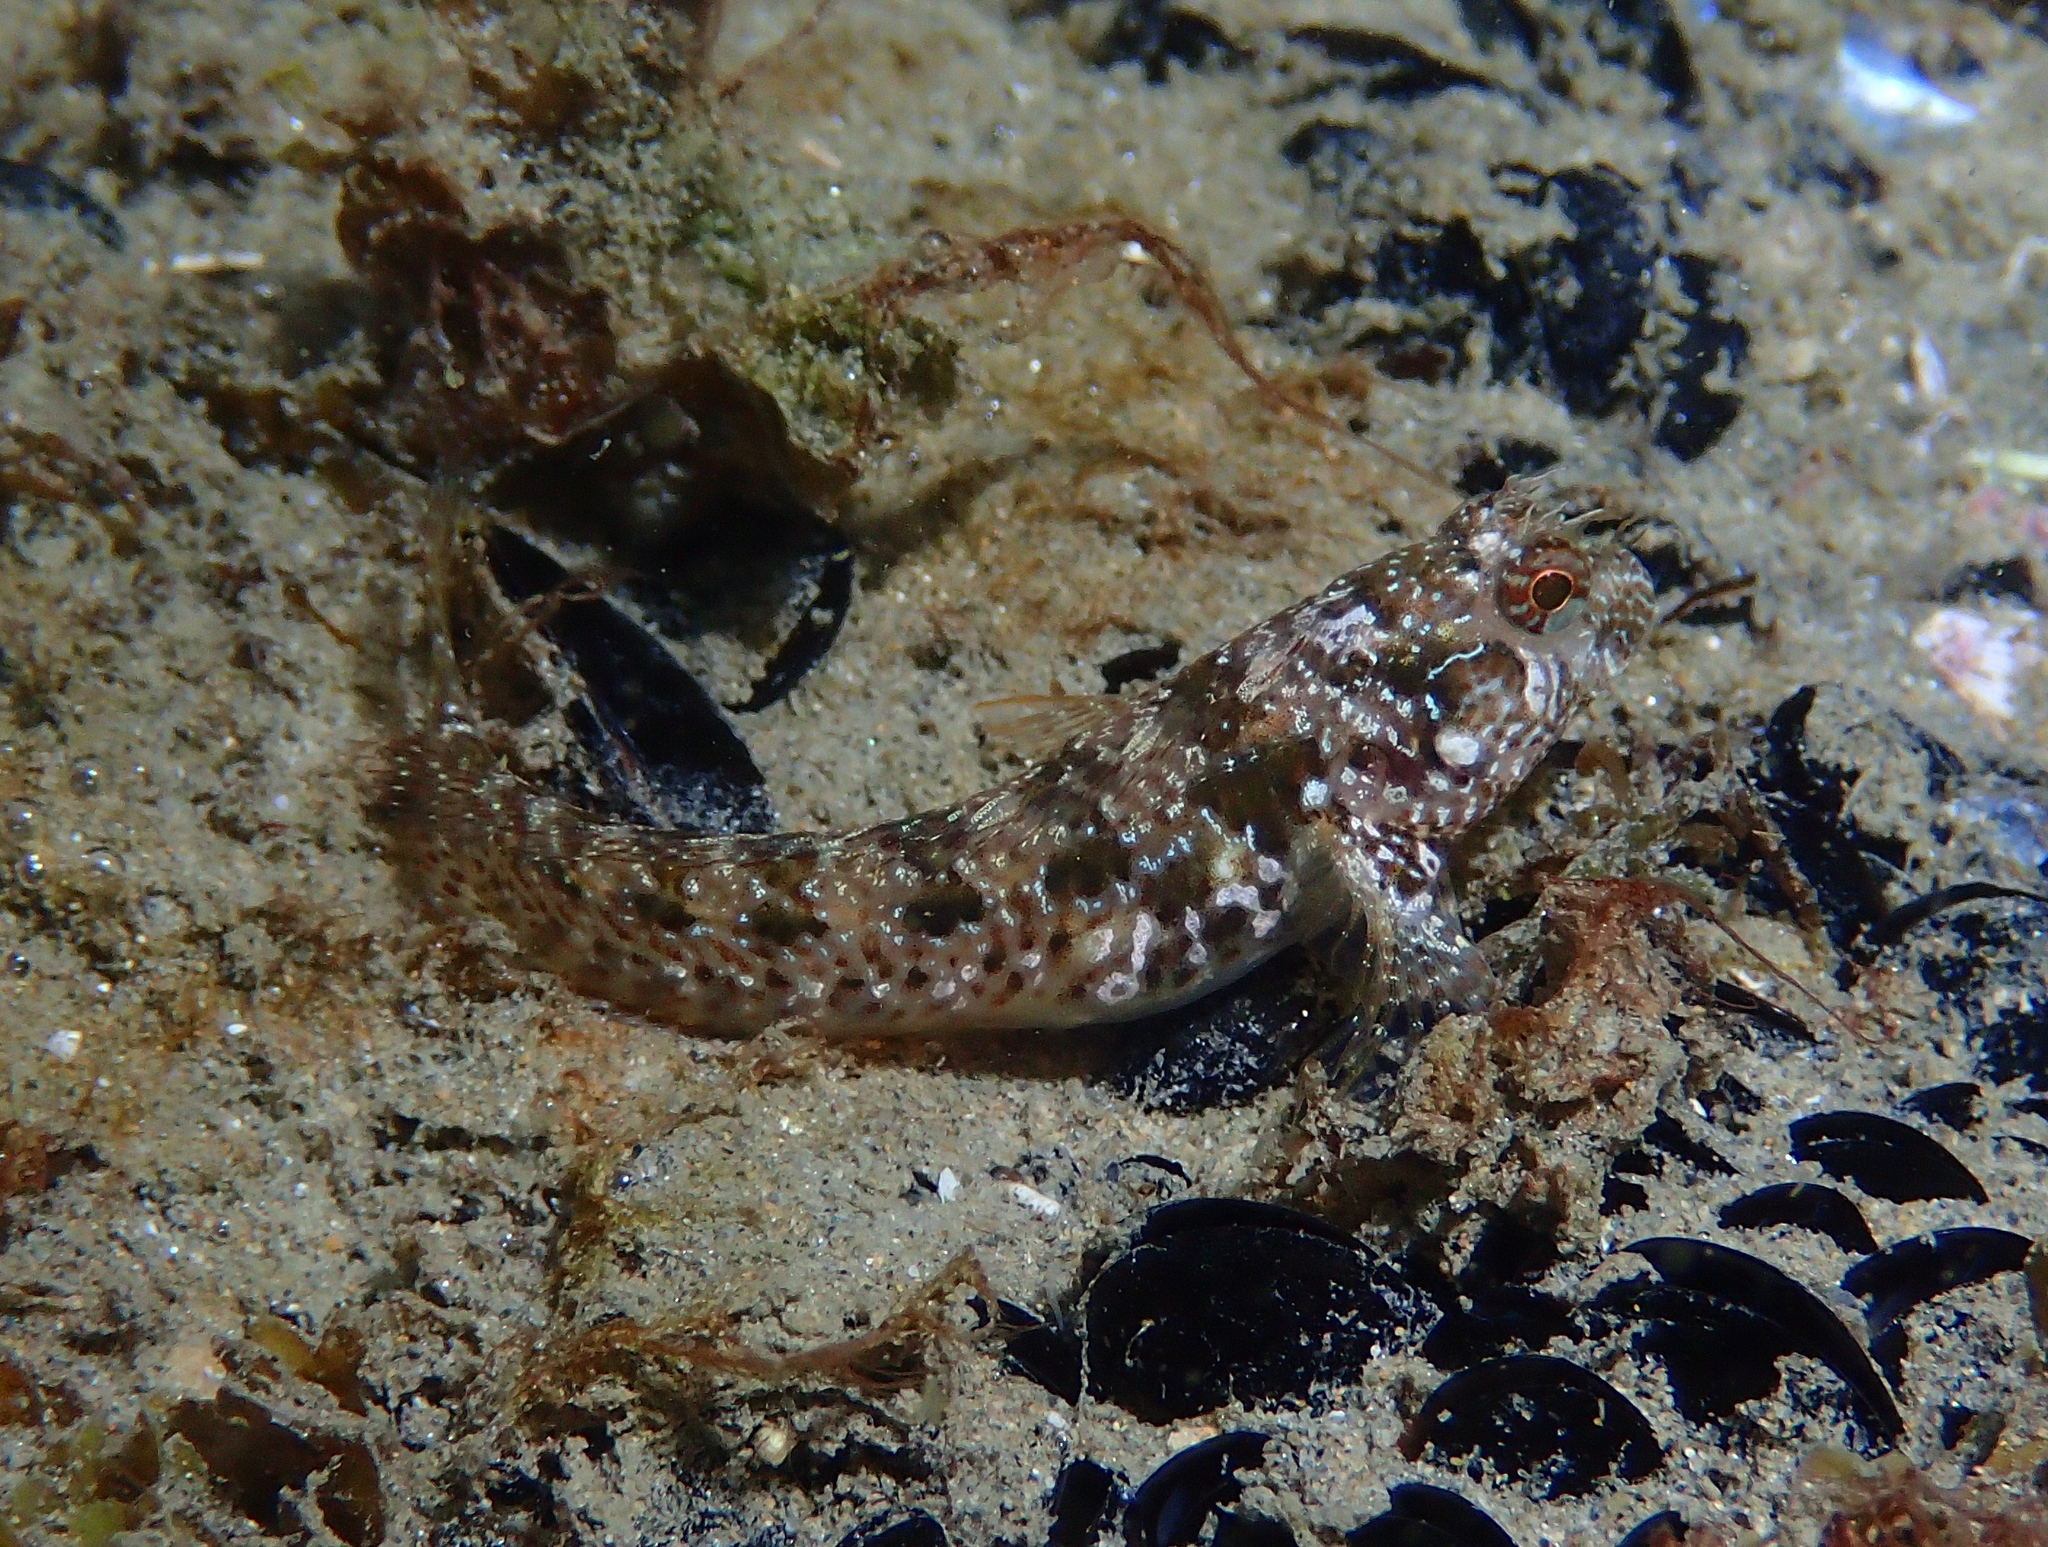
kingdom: Animalia
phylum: Chordata
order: Perciformes
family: Blenniidae
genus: Parablennius
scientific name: Parablennius incognitus
